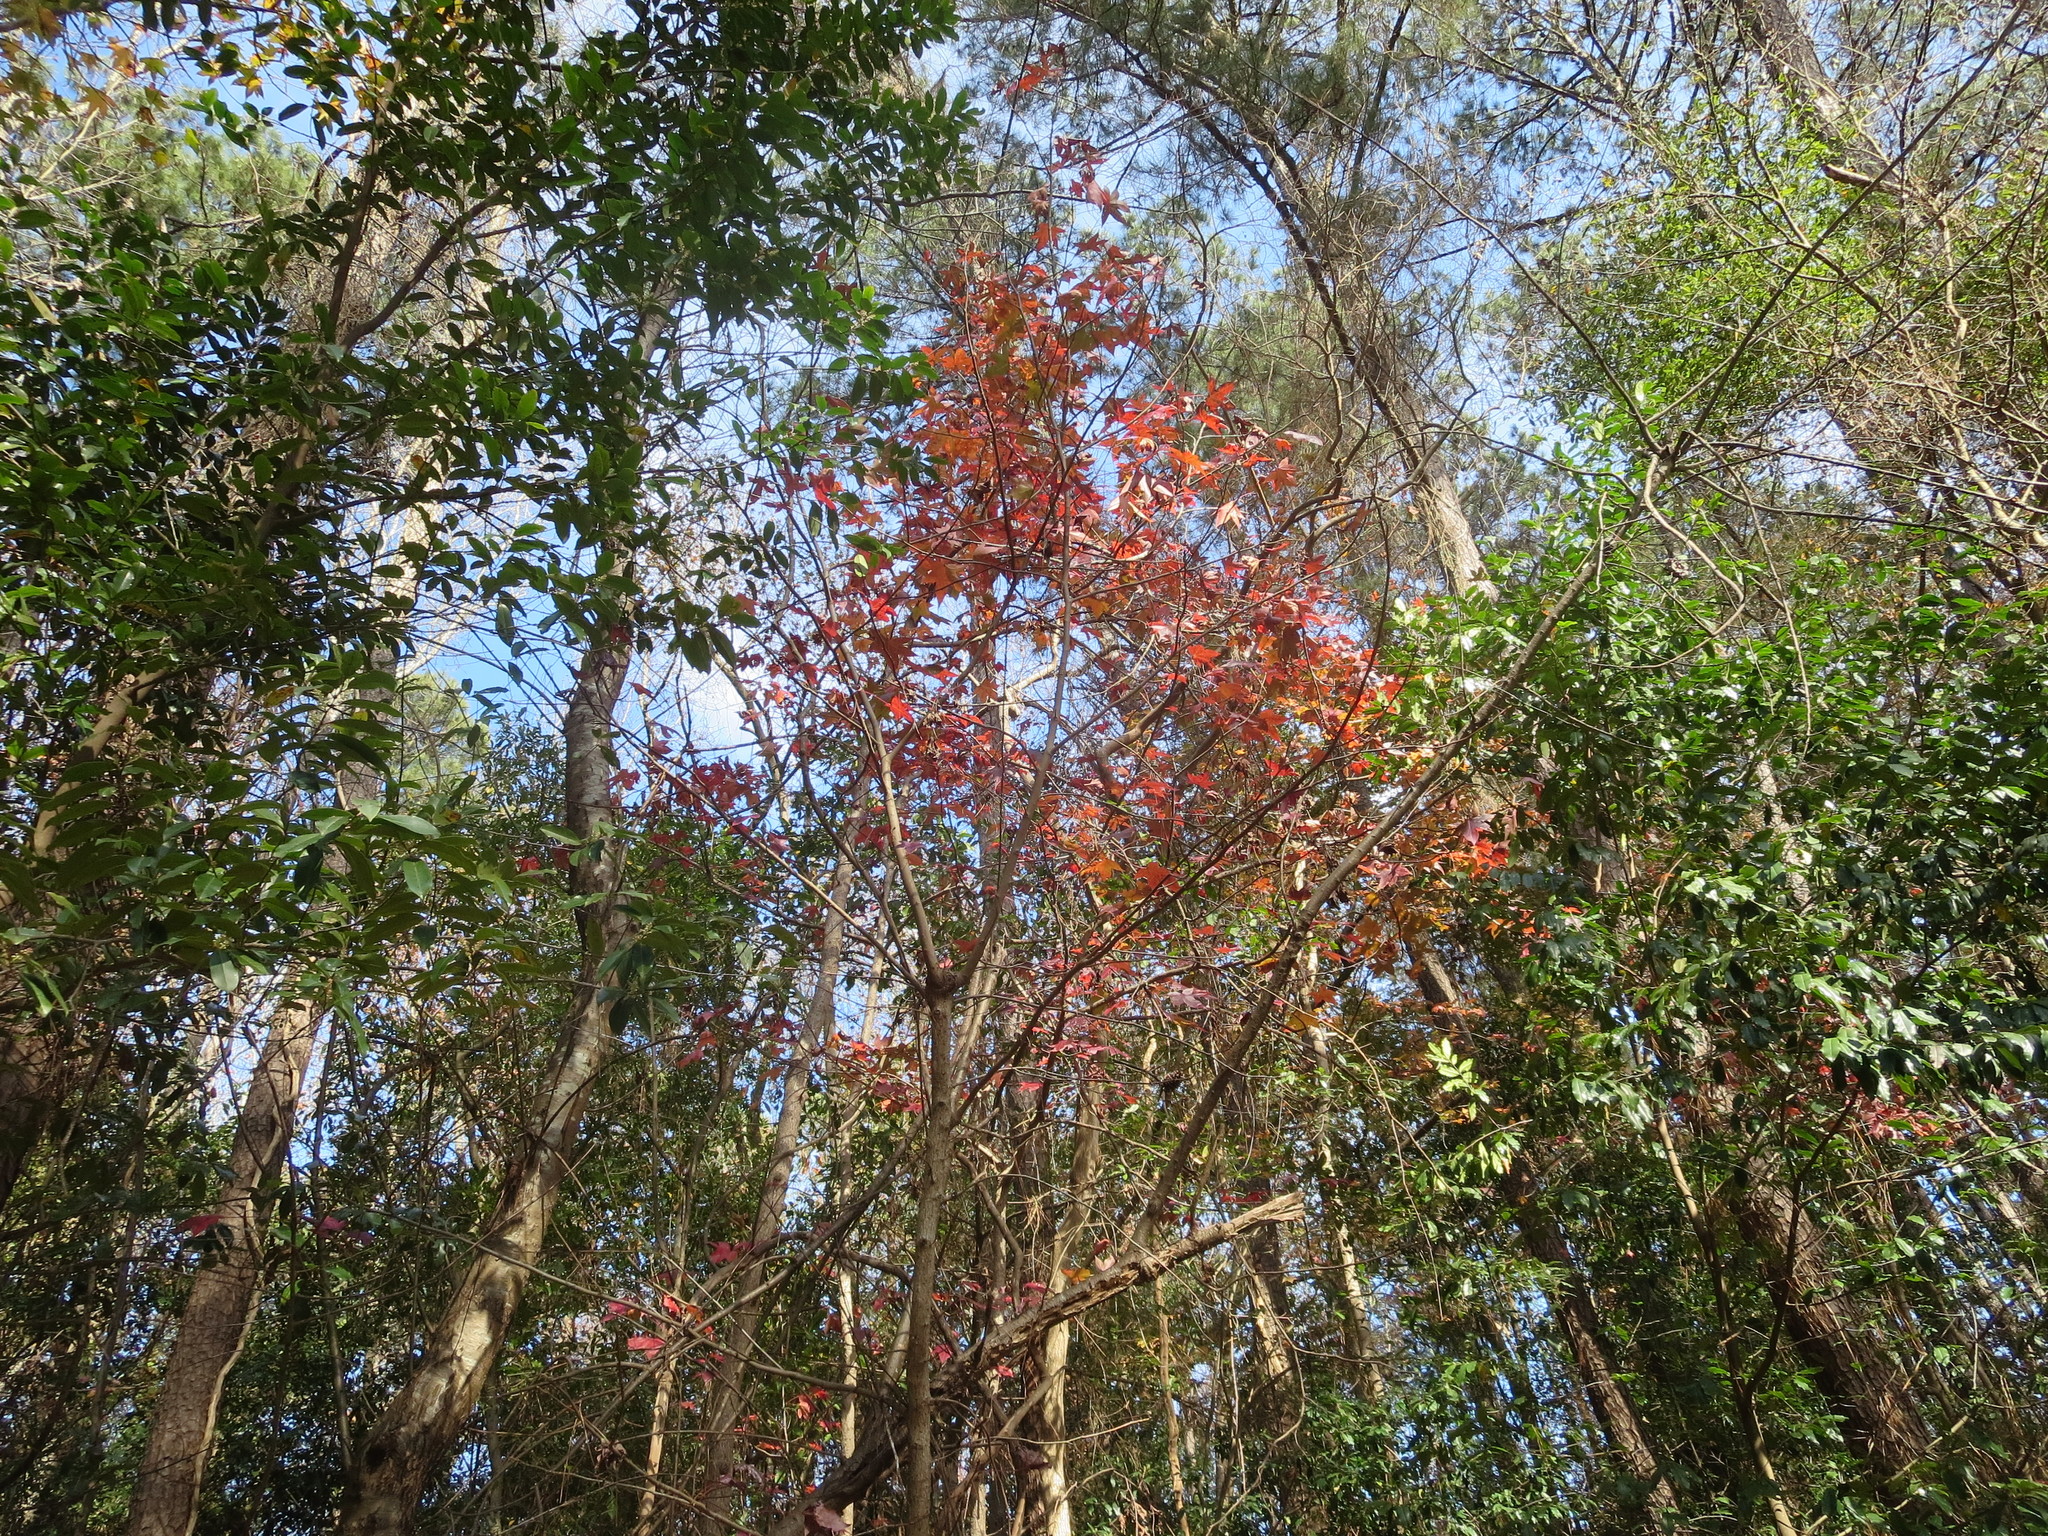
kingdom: Plantae
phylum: Tracheophyta
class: Magnoliopsida
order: Saxifragales
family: Altingiaceae
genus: Liquidambar
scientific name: Liquidambar styraciflua
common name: Sweet gum
